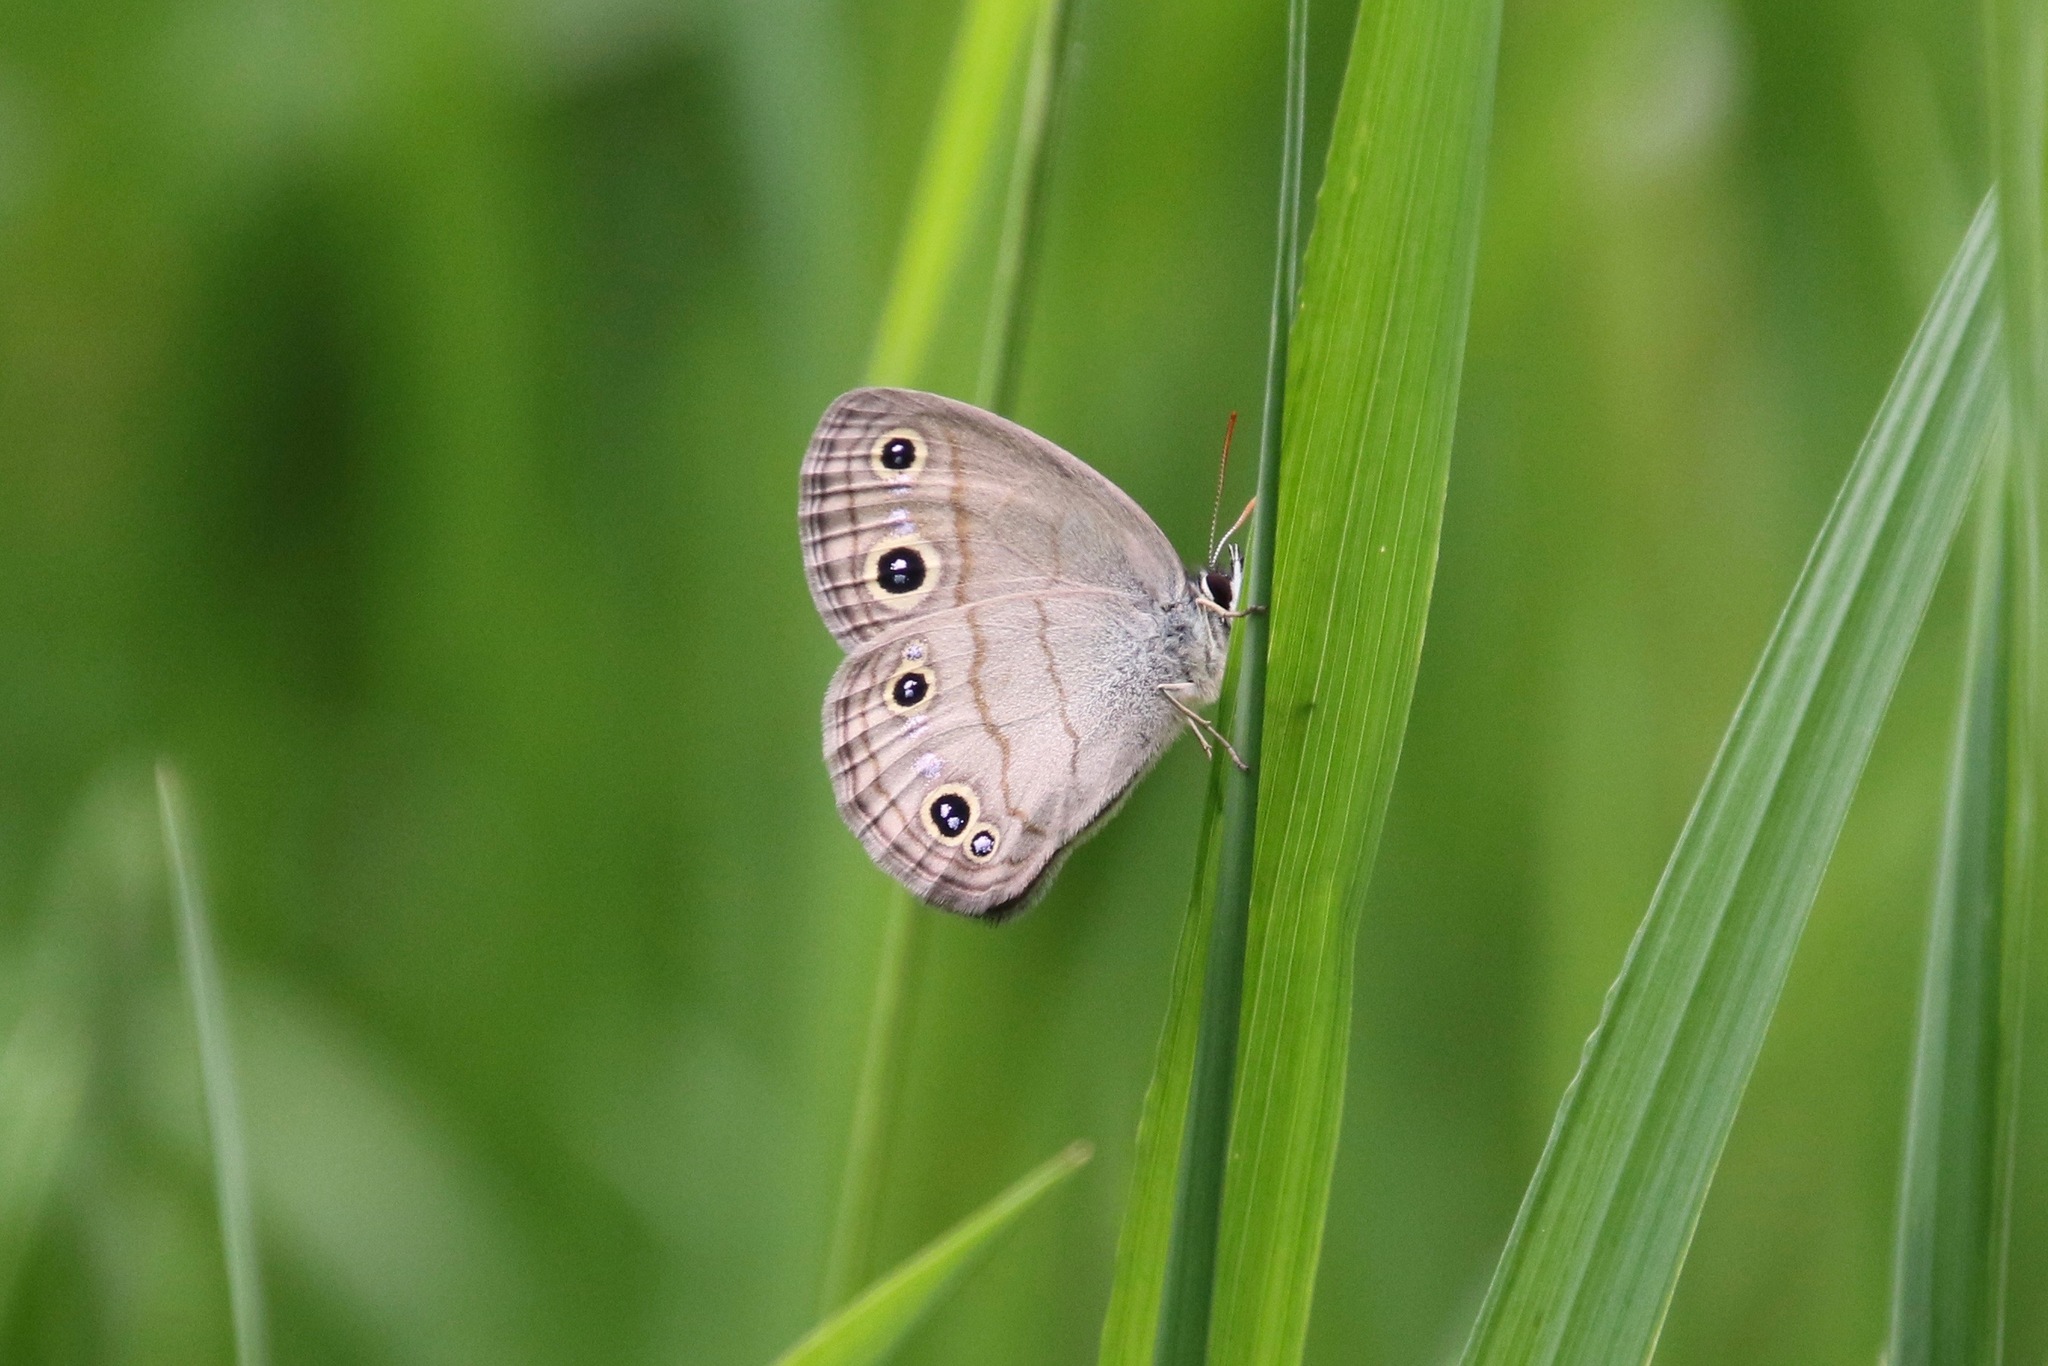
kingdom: Animalia
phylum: Arthropoda
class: Insecta
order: Lepidoptera
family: Nymphalidae
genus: Euptychia
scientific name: Euptychia cymela
